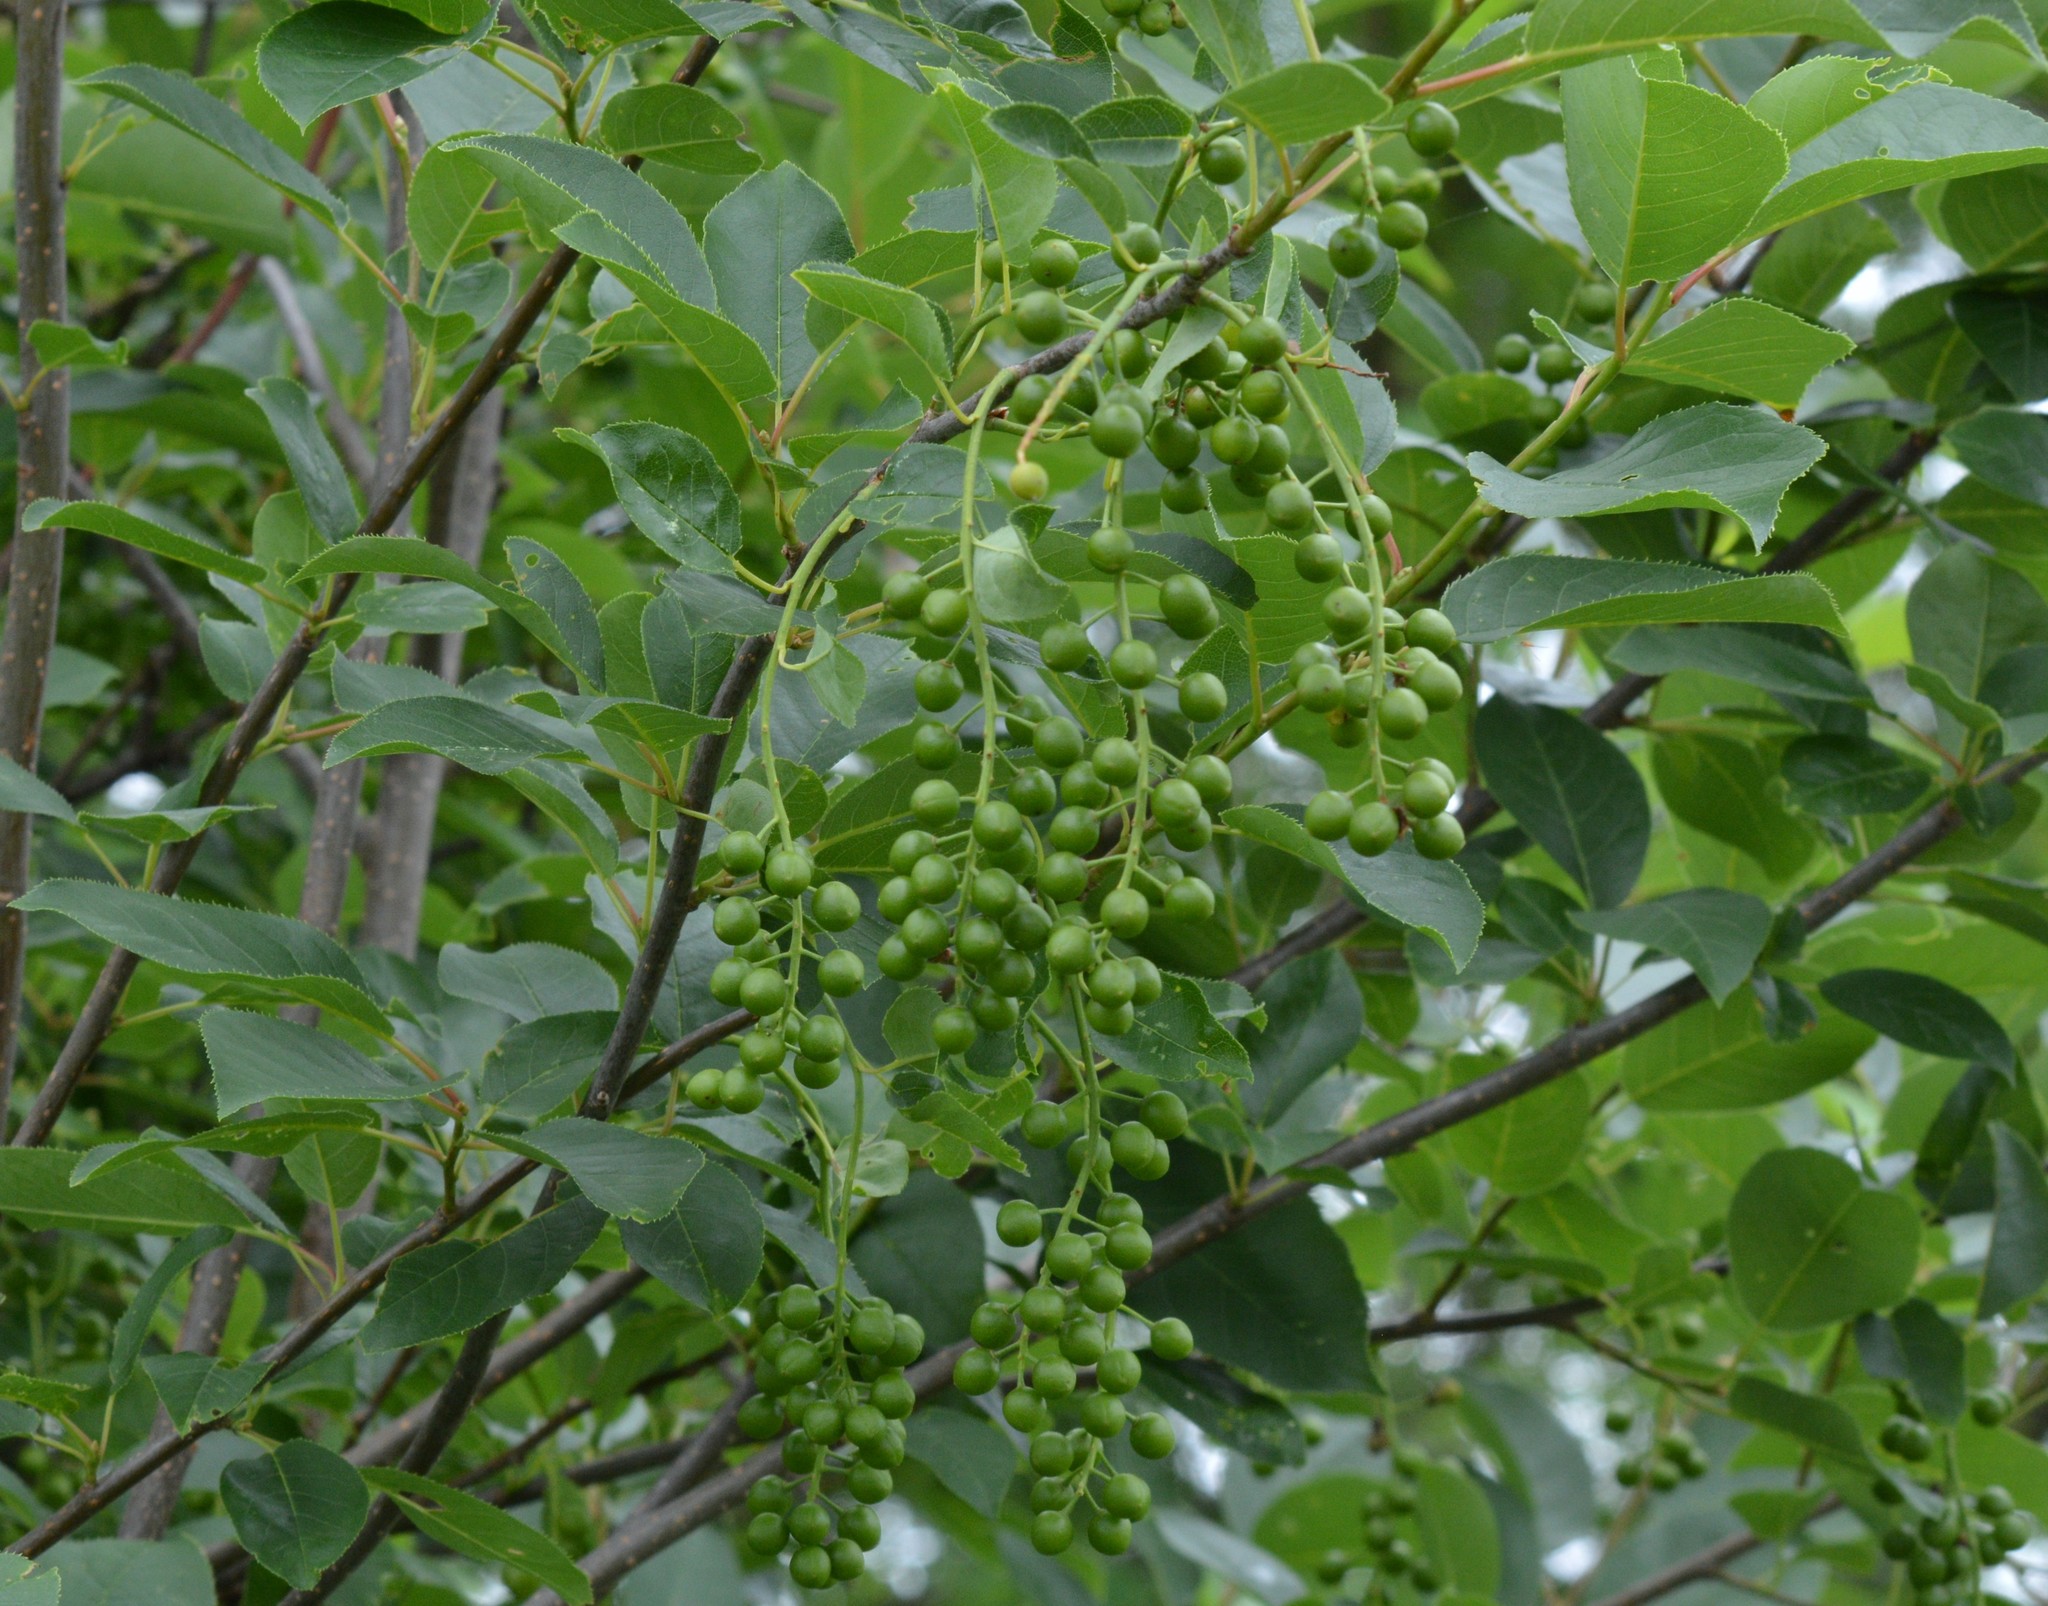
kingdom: Plantae
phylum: Tracheophyta
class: Magnoliopsida
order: Rosales
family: Rosaceae
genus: Prunus
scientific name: Prunus virginiana
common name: Chokecherry
